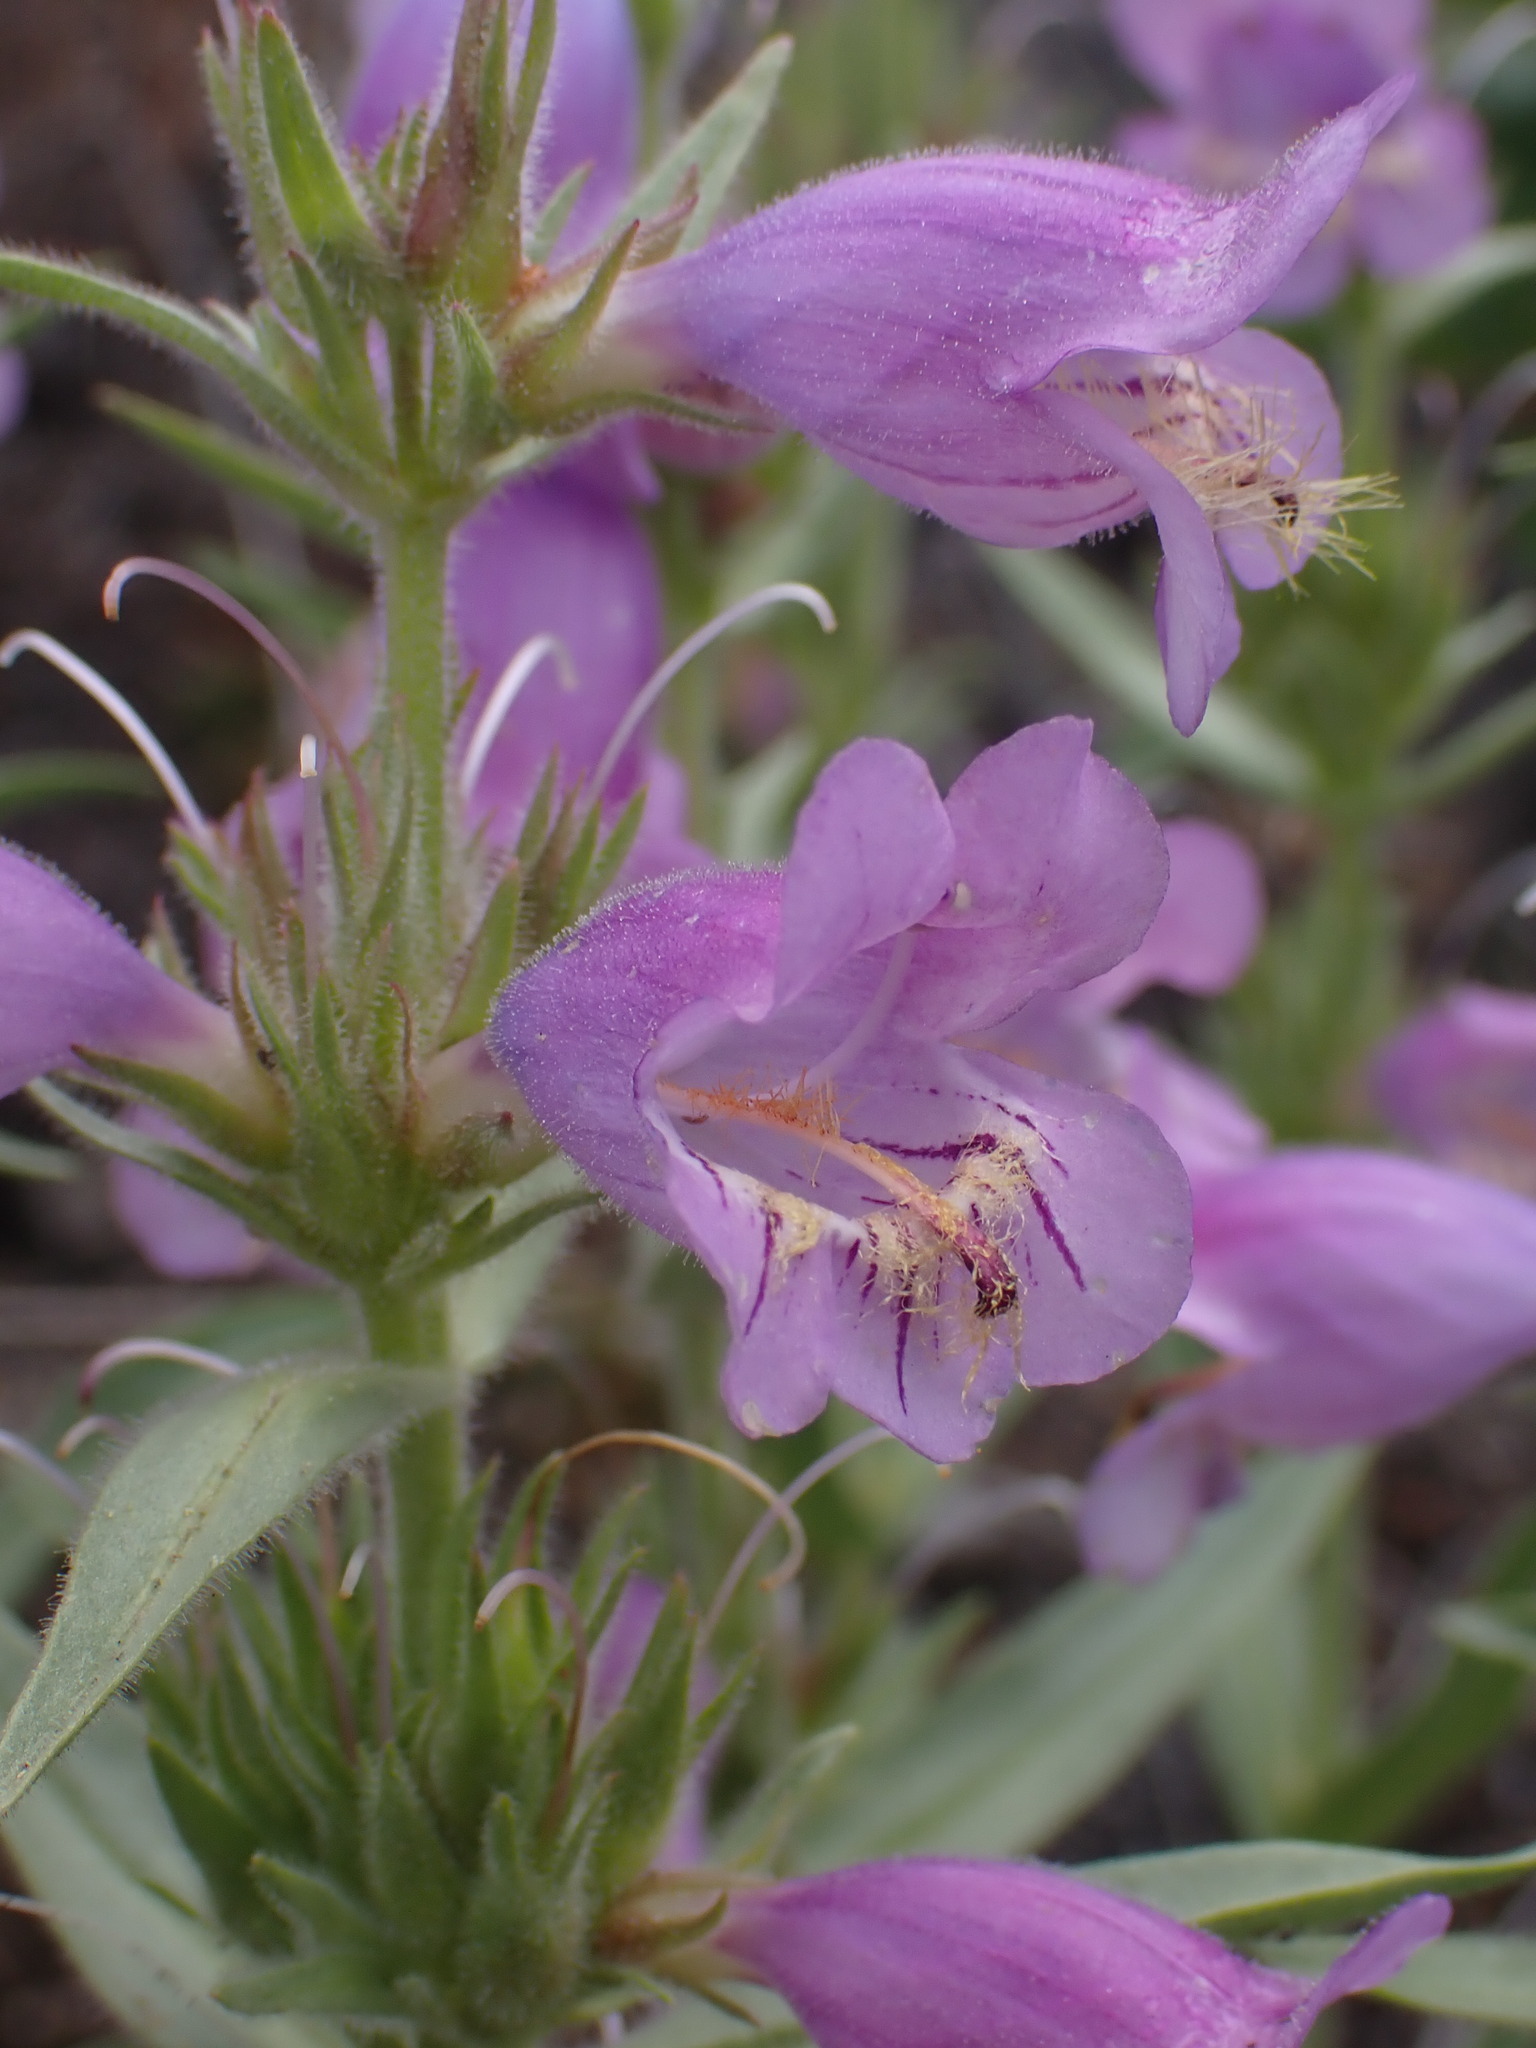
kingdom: Plantae
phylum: Tracheophyta
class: Magnoliopsida
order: Lamiales
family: Plantaginaceae
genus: Penstemon
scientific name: Penstemon eriantherus
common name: Crested beardtongue
